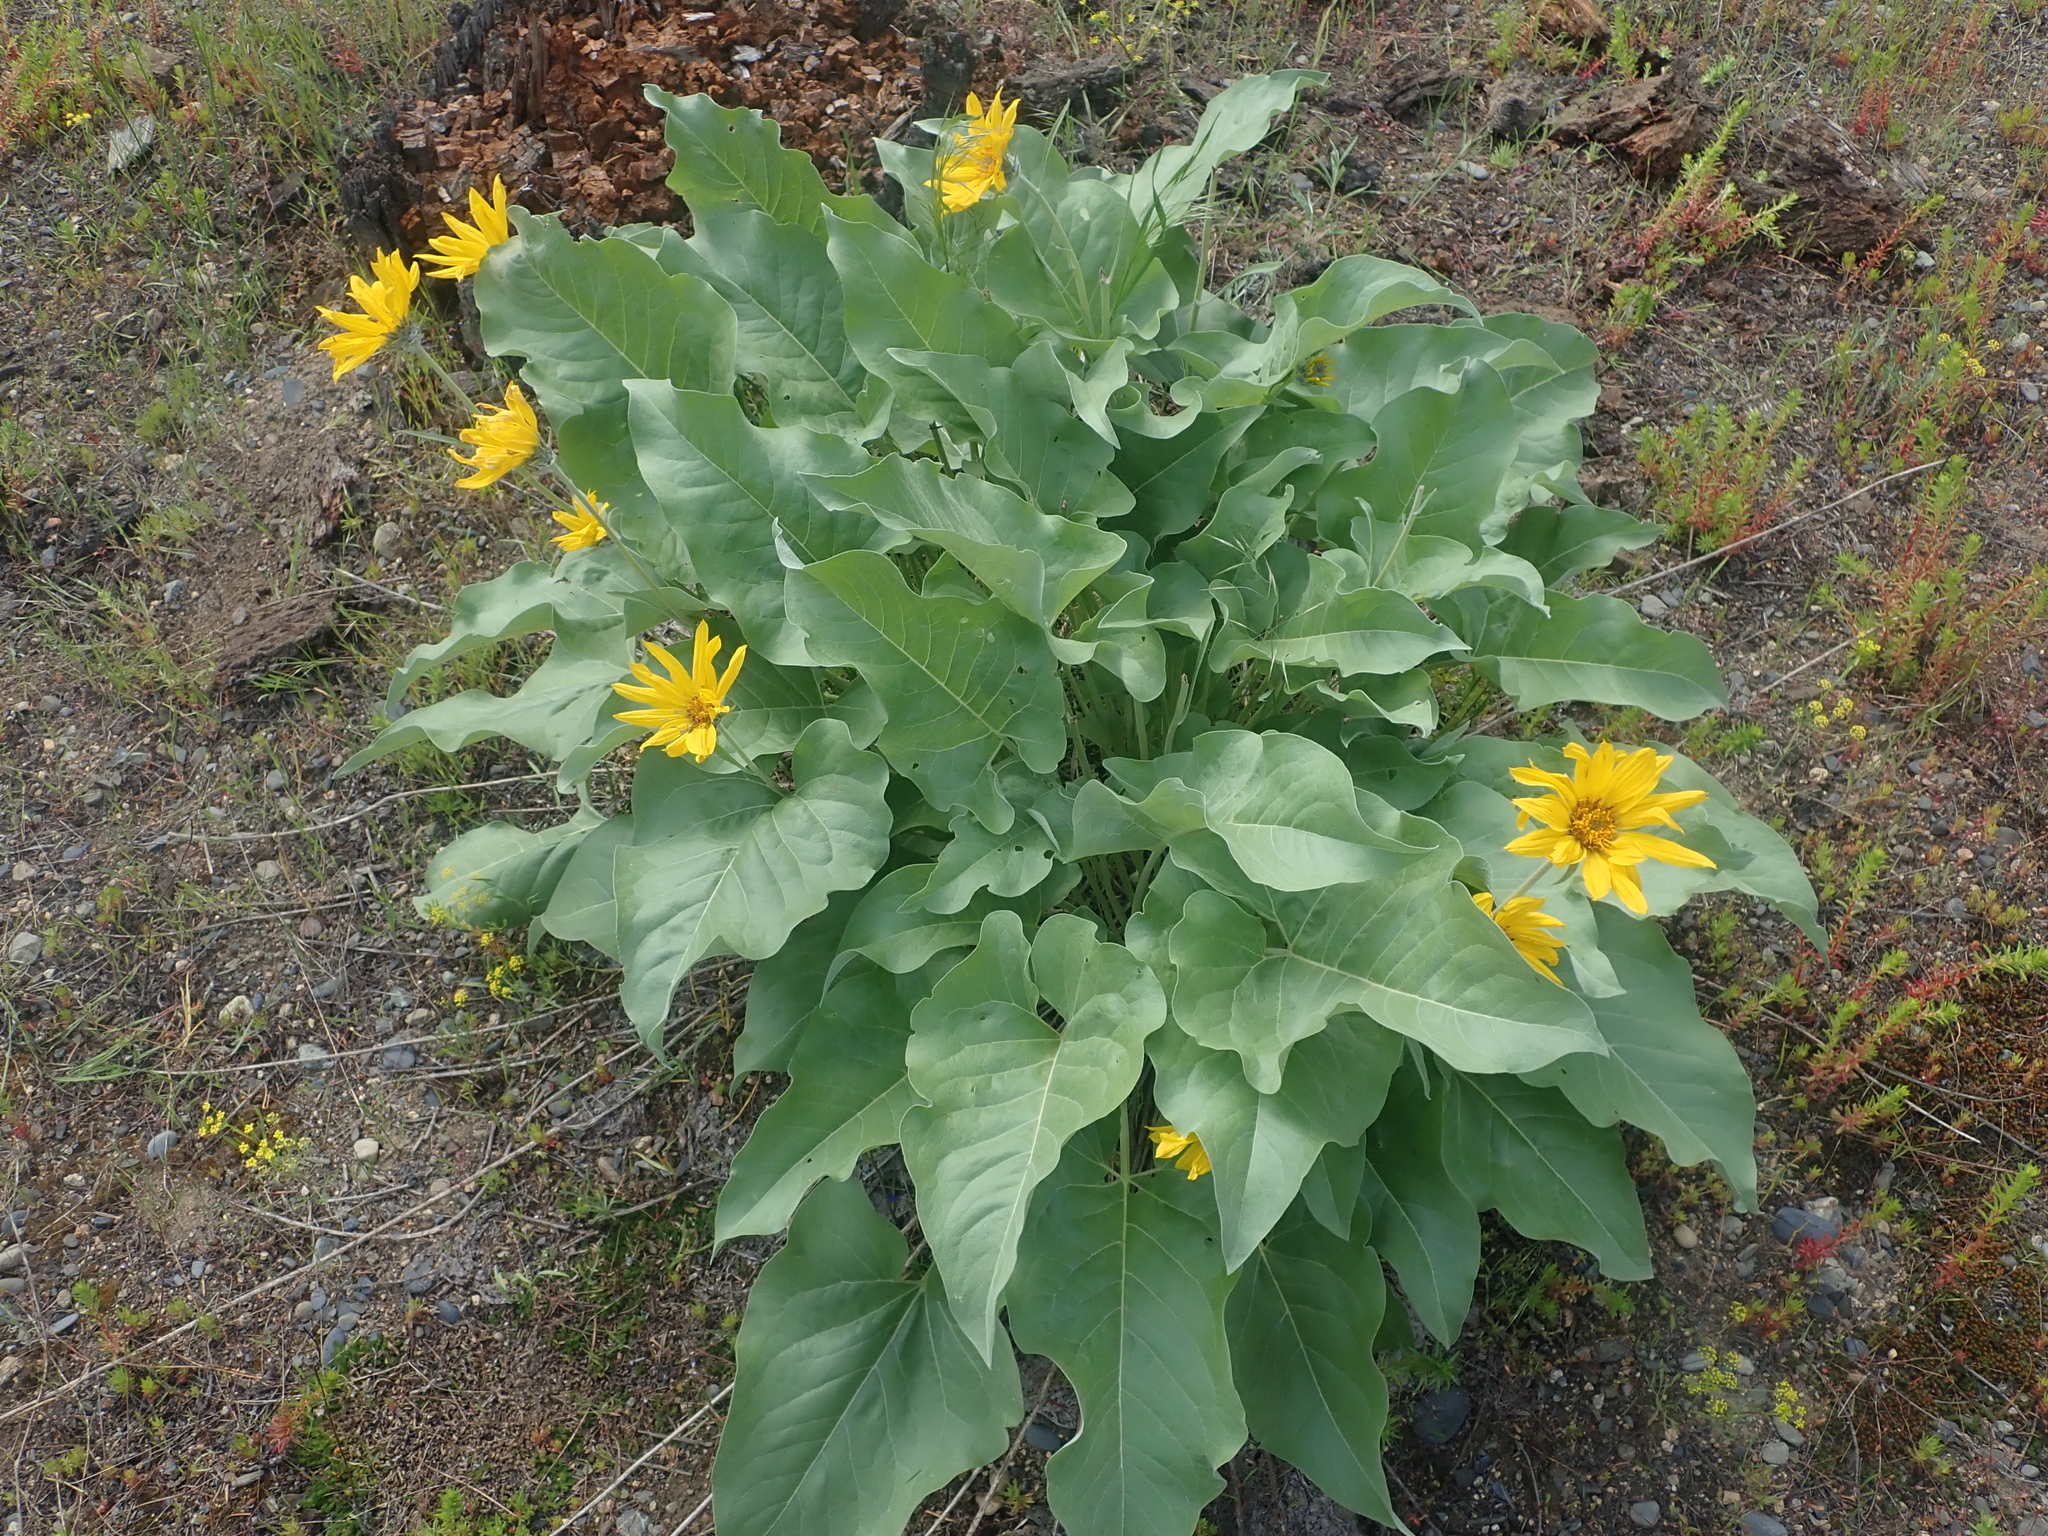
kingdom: Plantae
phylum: Tracheophyta
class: Magnoliopsida
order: Asterales
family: Asteraceae
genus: Wyethia
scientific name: Wyethia sagittata
